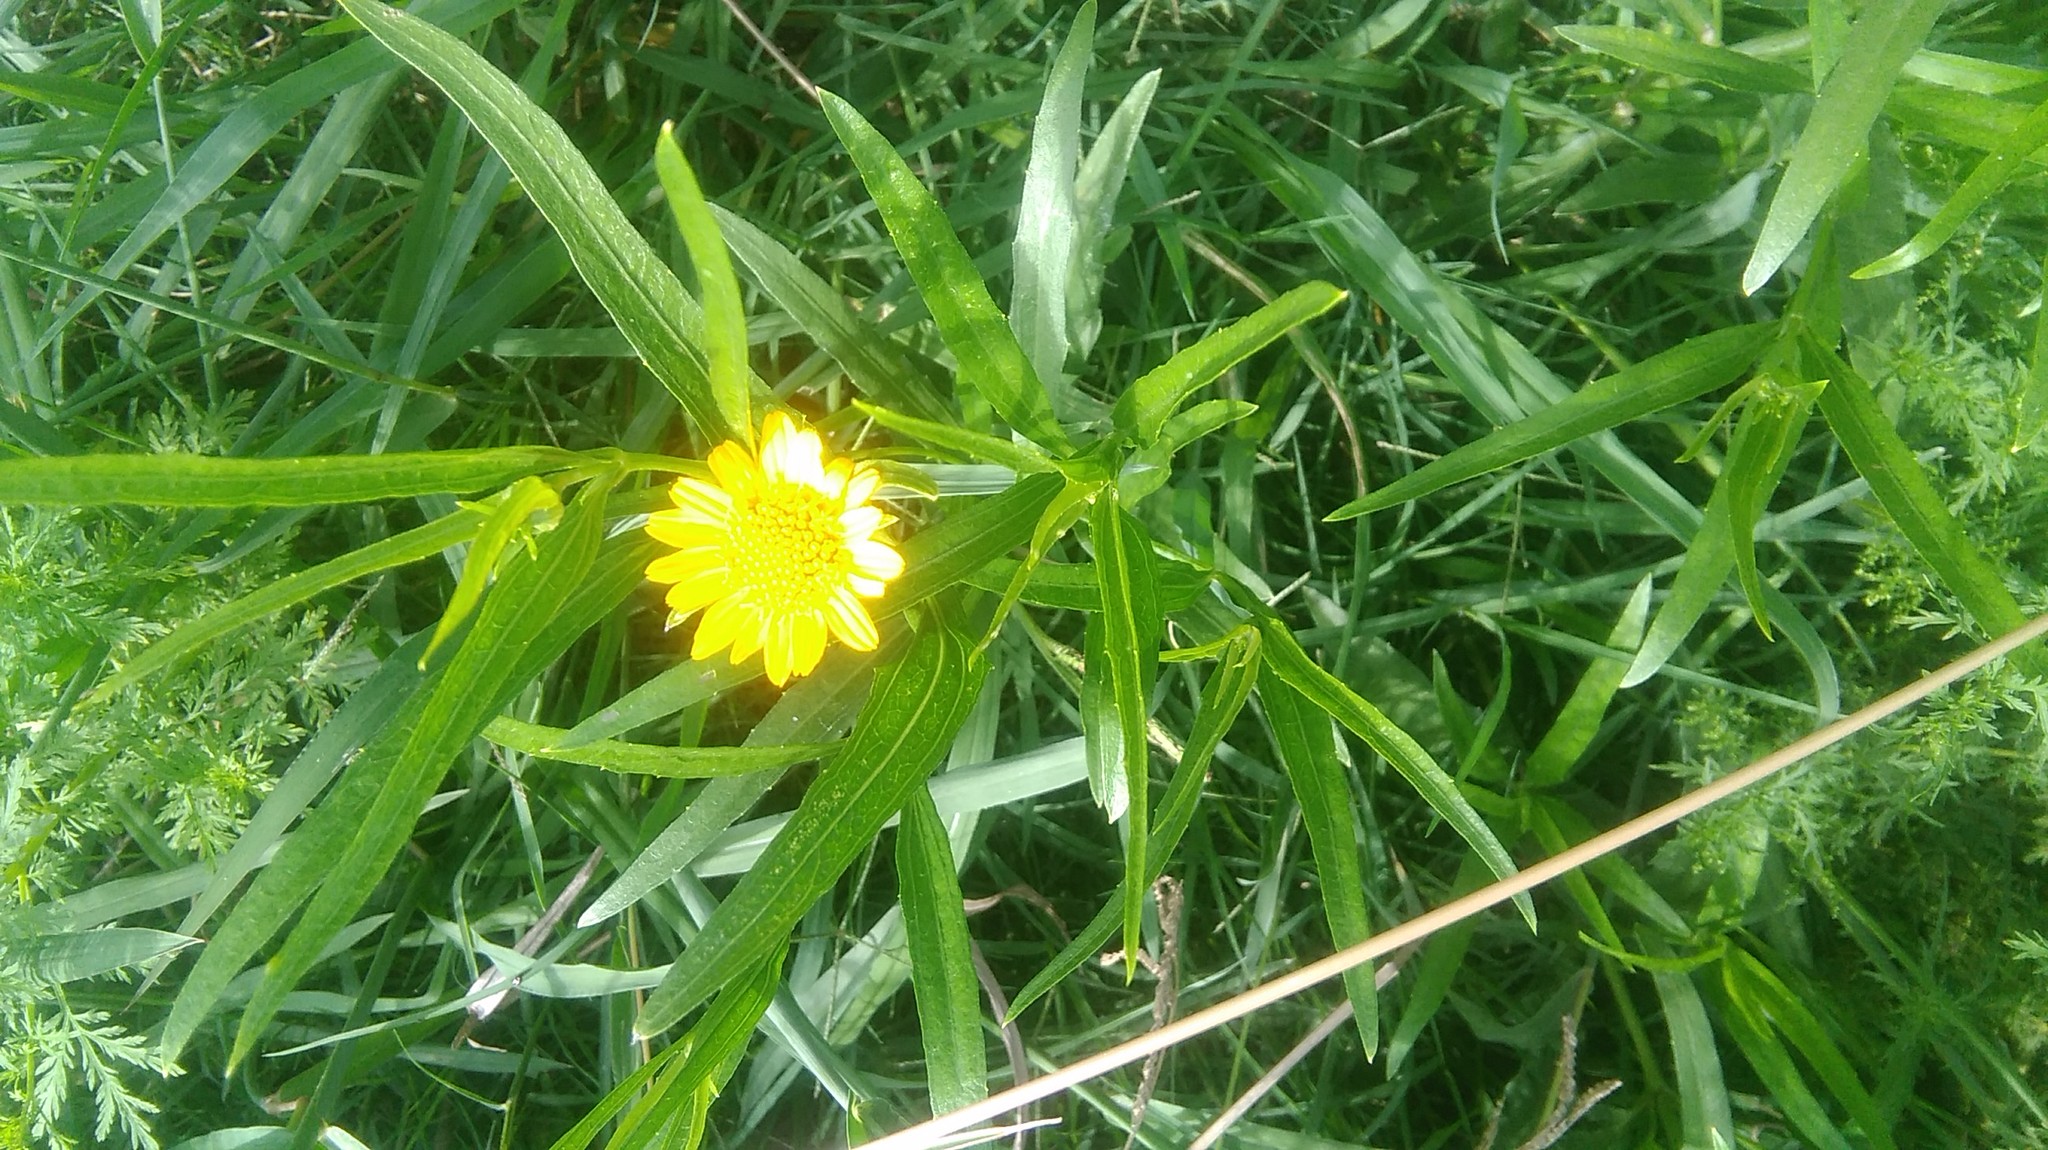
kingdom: Plantae
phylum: Tracheophyta
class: Magnoliopsida
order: Asterales
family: Asteraceae
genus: Pascalia
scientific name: Pascalia glauca
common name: Beach creeping oxeye
